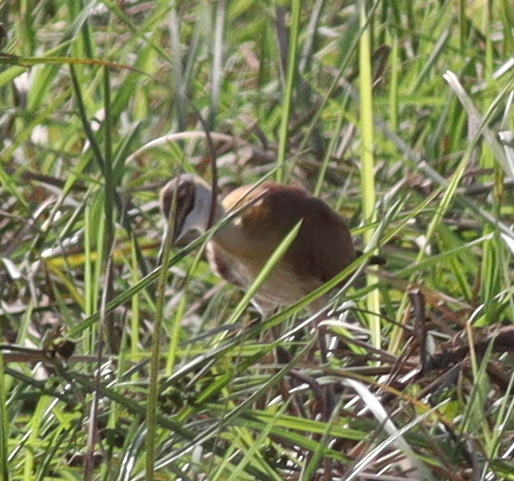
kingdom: Animalia
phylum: Chordata
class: Aves
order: Charadriiformes
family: Jacanidae
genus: Actophilornis
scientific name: Actophilornis africanus
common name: African jacana
